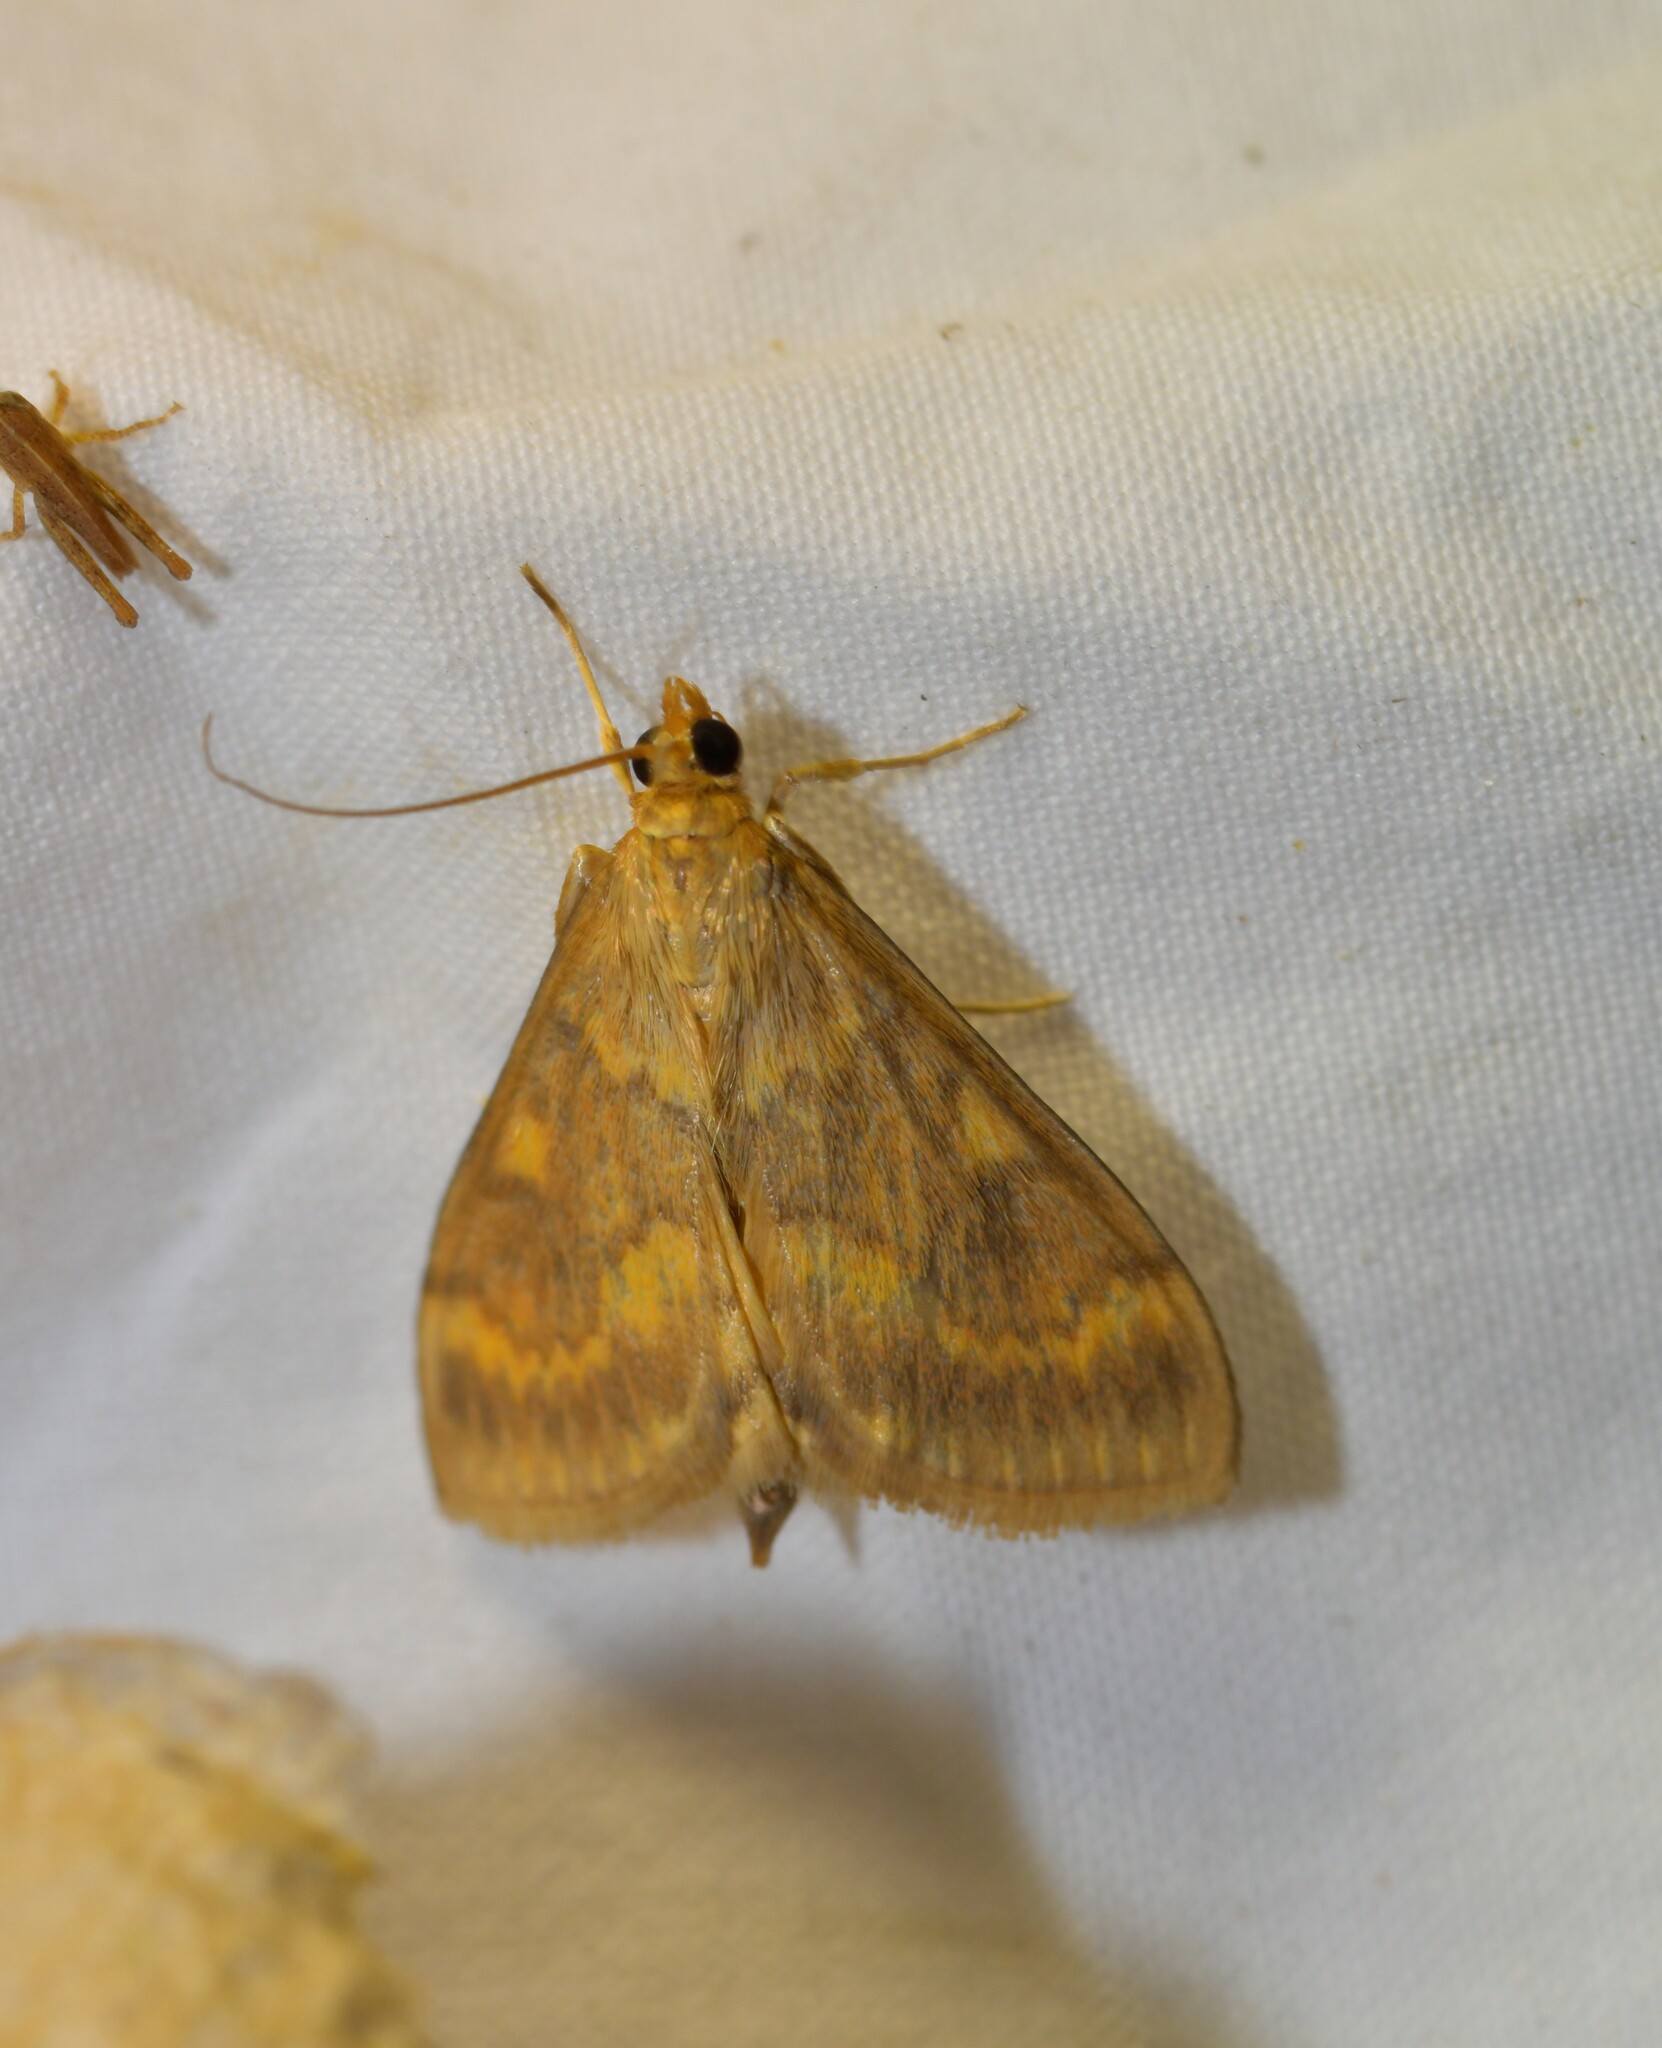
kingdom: Animalia
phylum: Arthropoda
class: Insecta
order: Lepidoptera
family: Crambidae
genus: Ostrinia
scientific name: Ostrinia nubilalis
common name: European corn borer
